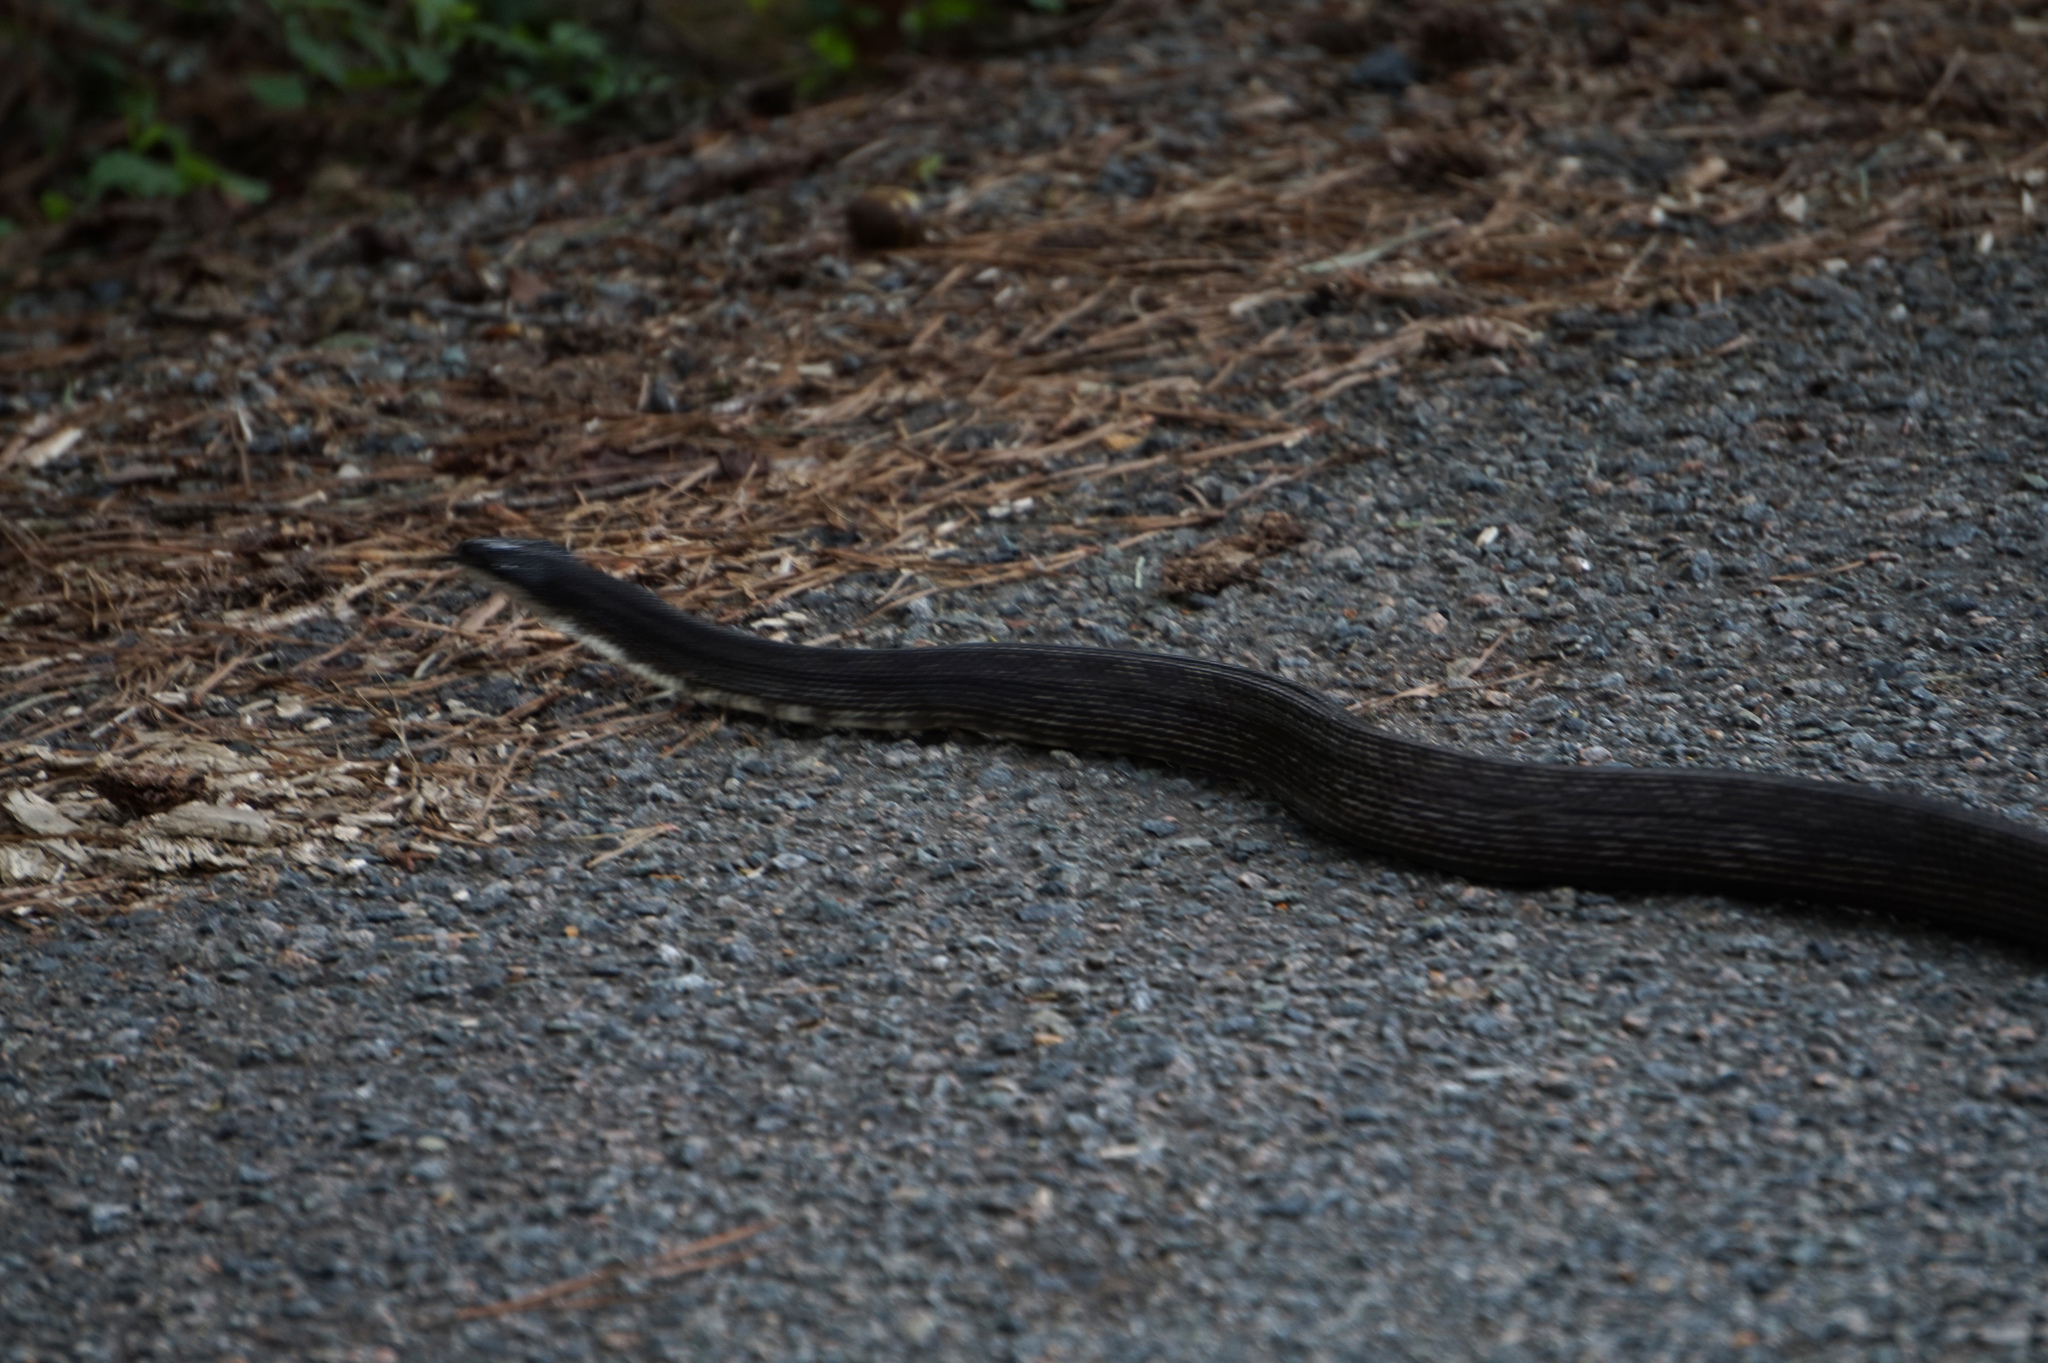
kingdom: Animalia
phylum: Chordata
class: Squamata
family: Colubridae
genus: Pantherophis
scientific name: Pantherophis alleghaniensis
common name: Eastern rat snake
